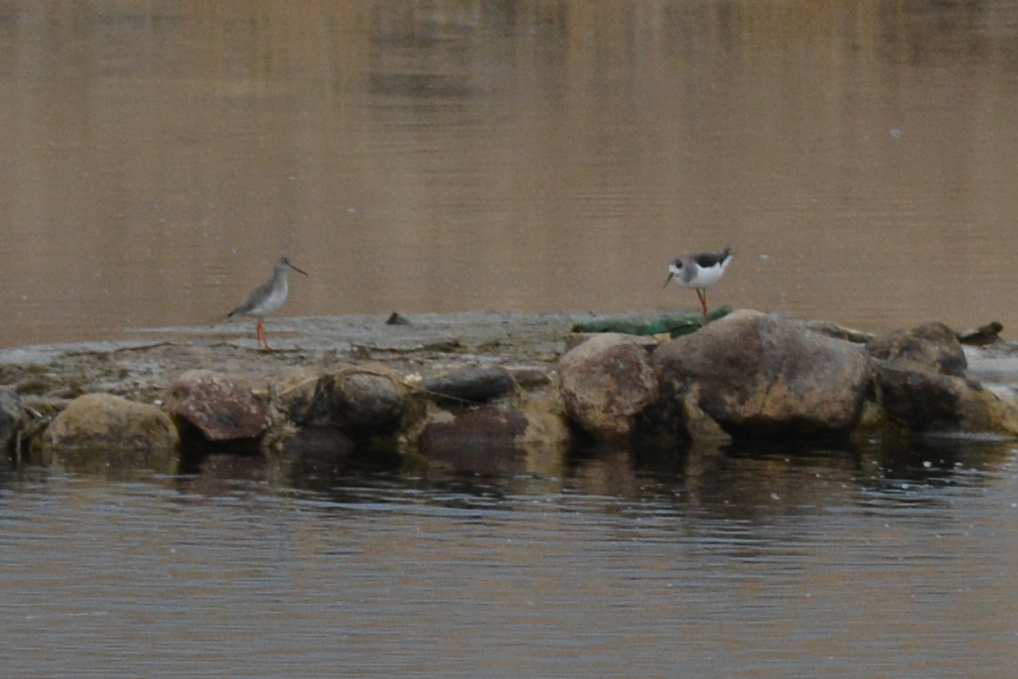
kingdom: Animalia
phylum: Chordata
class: Aves
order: Charadriiformes
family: Recurvirostridae
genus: Himantopus
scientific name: Himantopus himantopus
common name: Black-winged stilt
